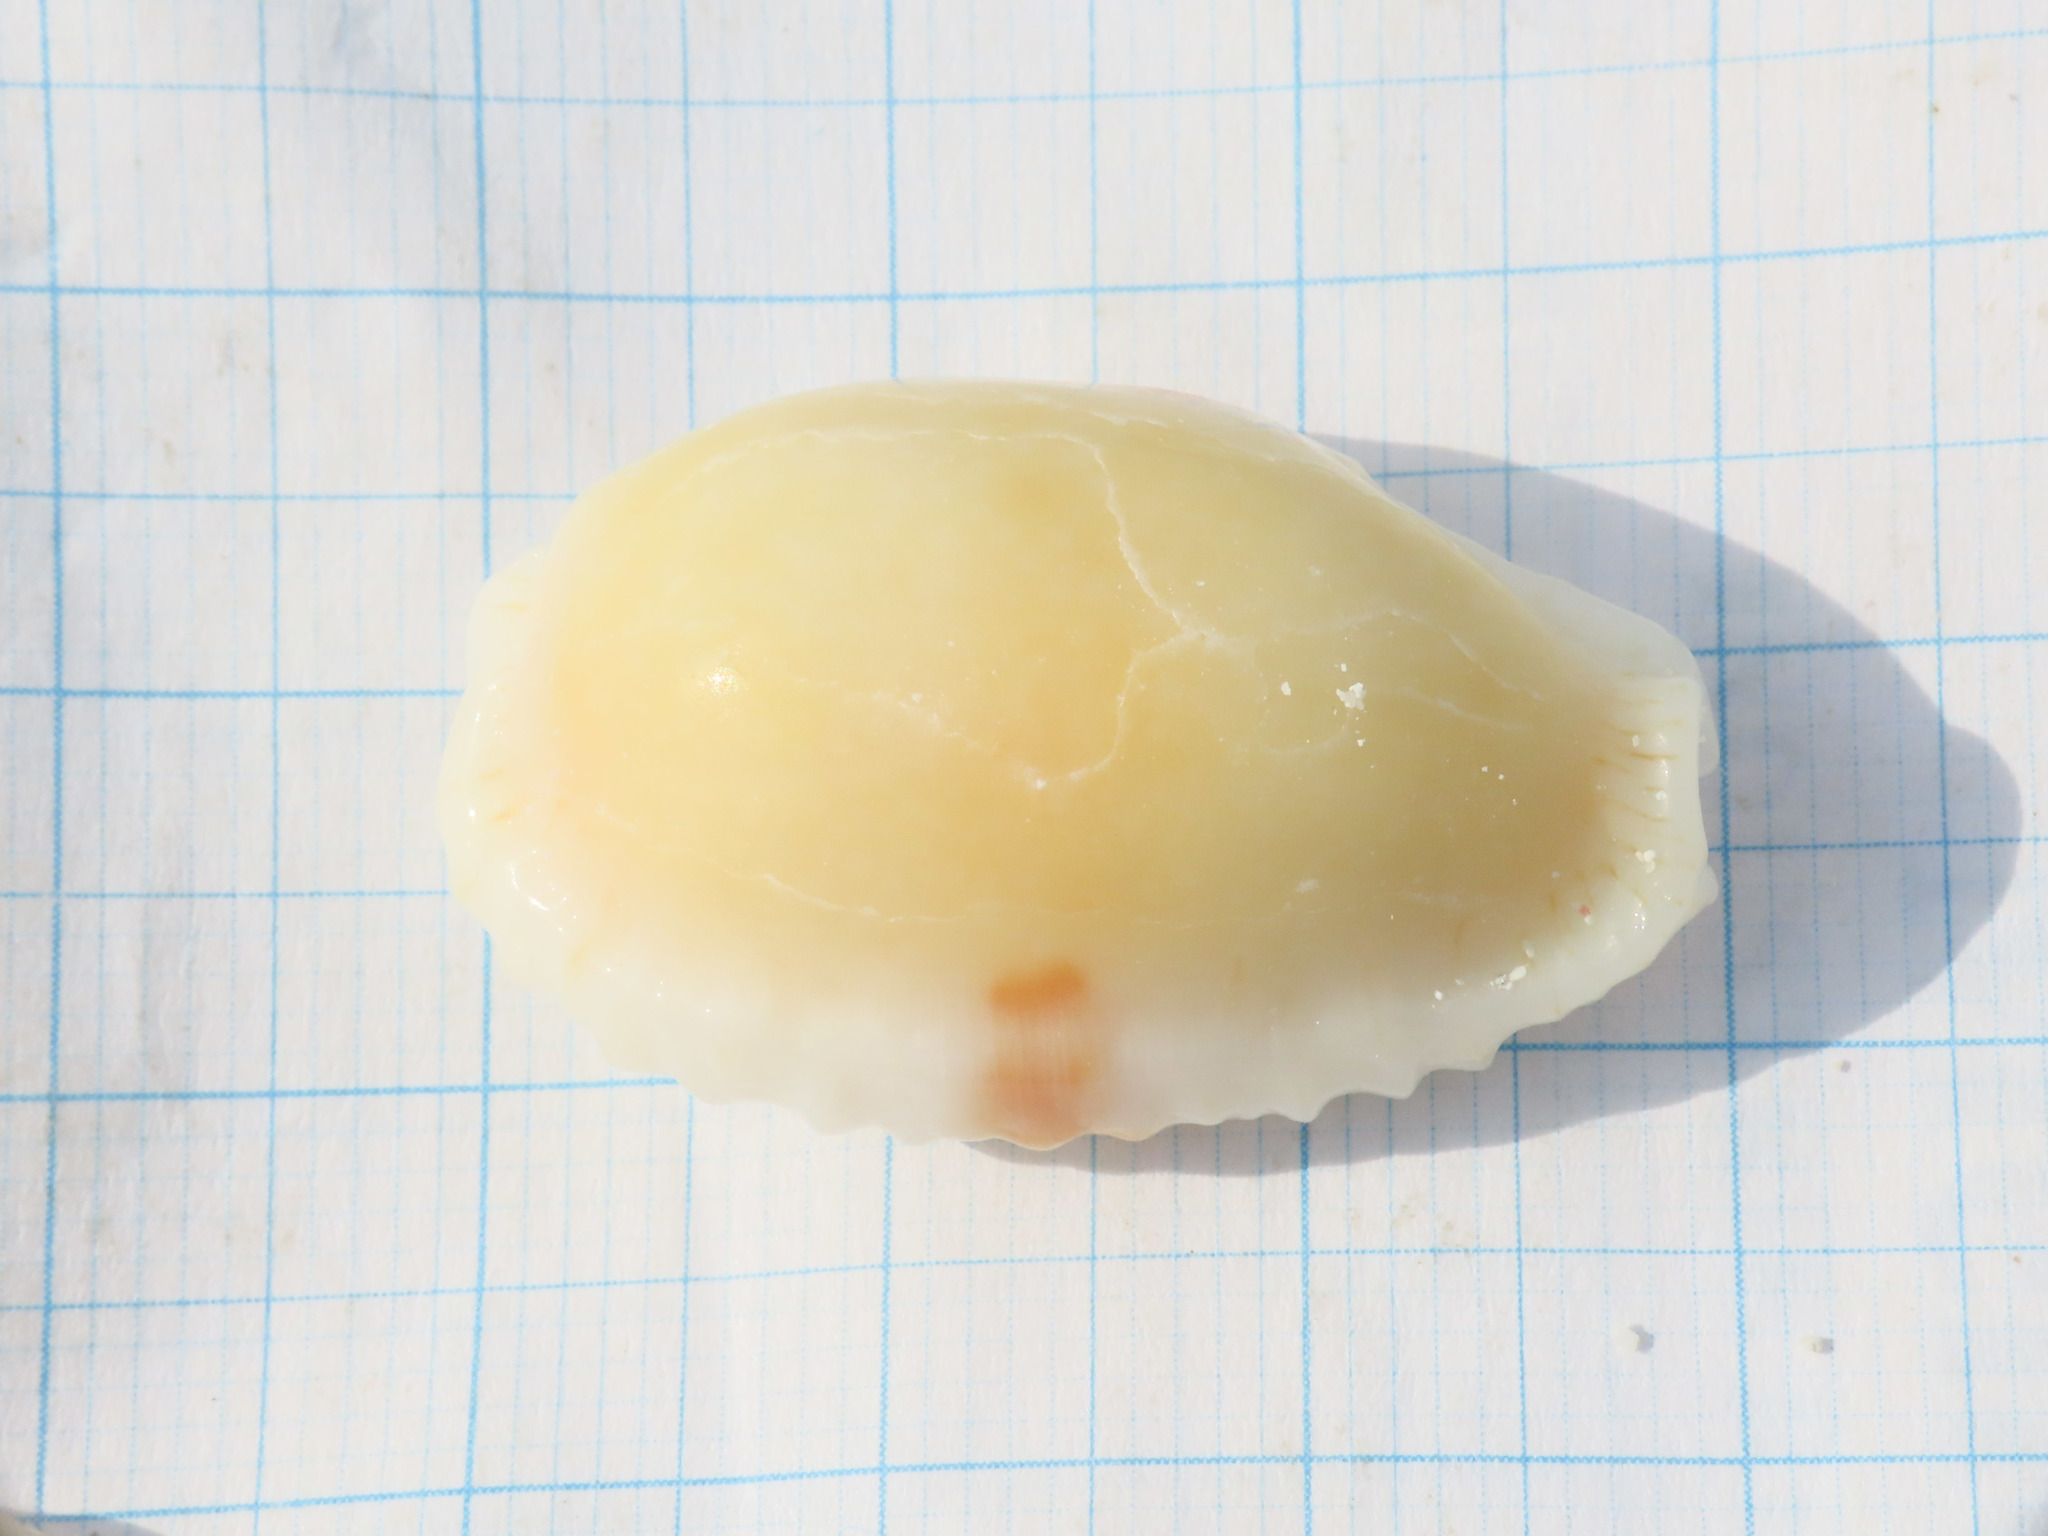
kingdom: Animalia
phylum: Mollusca
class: Gastropoda
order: Littorinimorpha
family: Cypraeidae
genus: Naria
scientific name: Naria erosa
